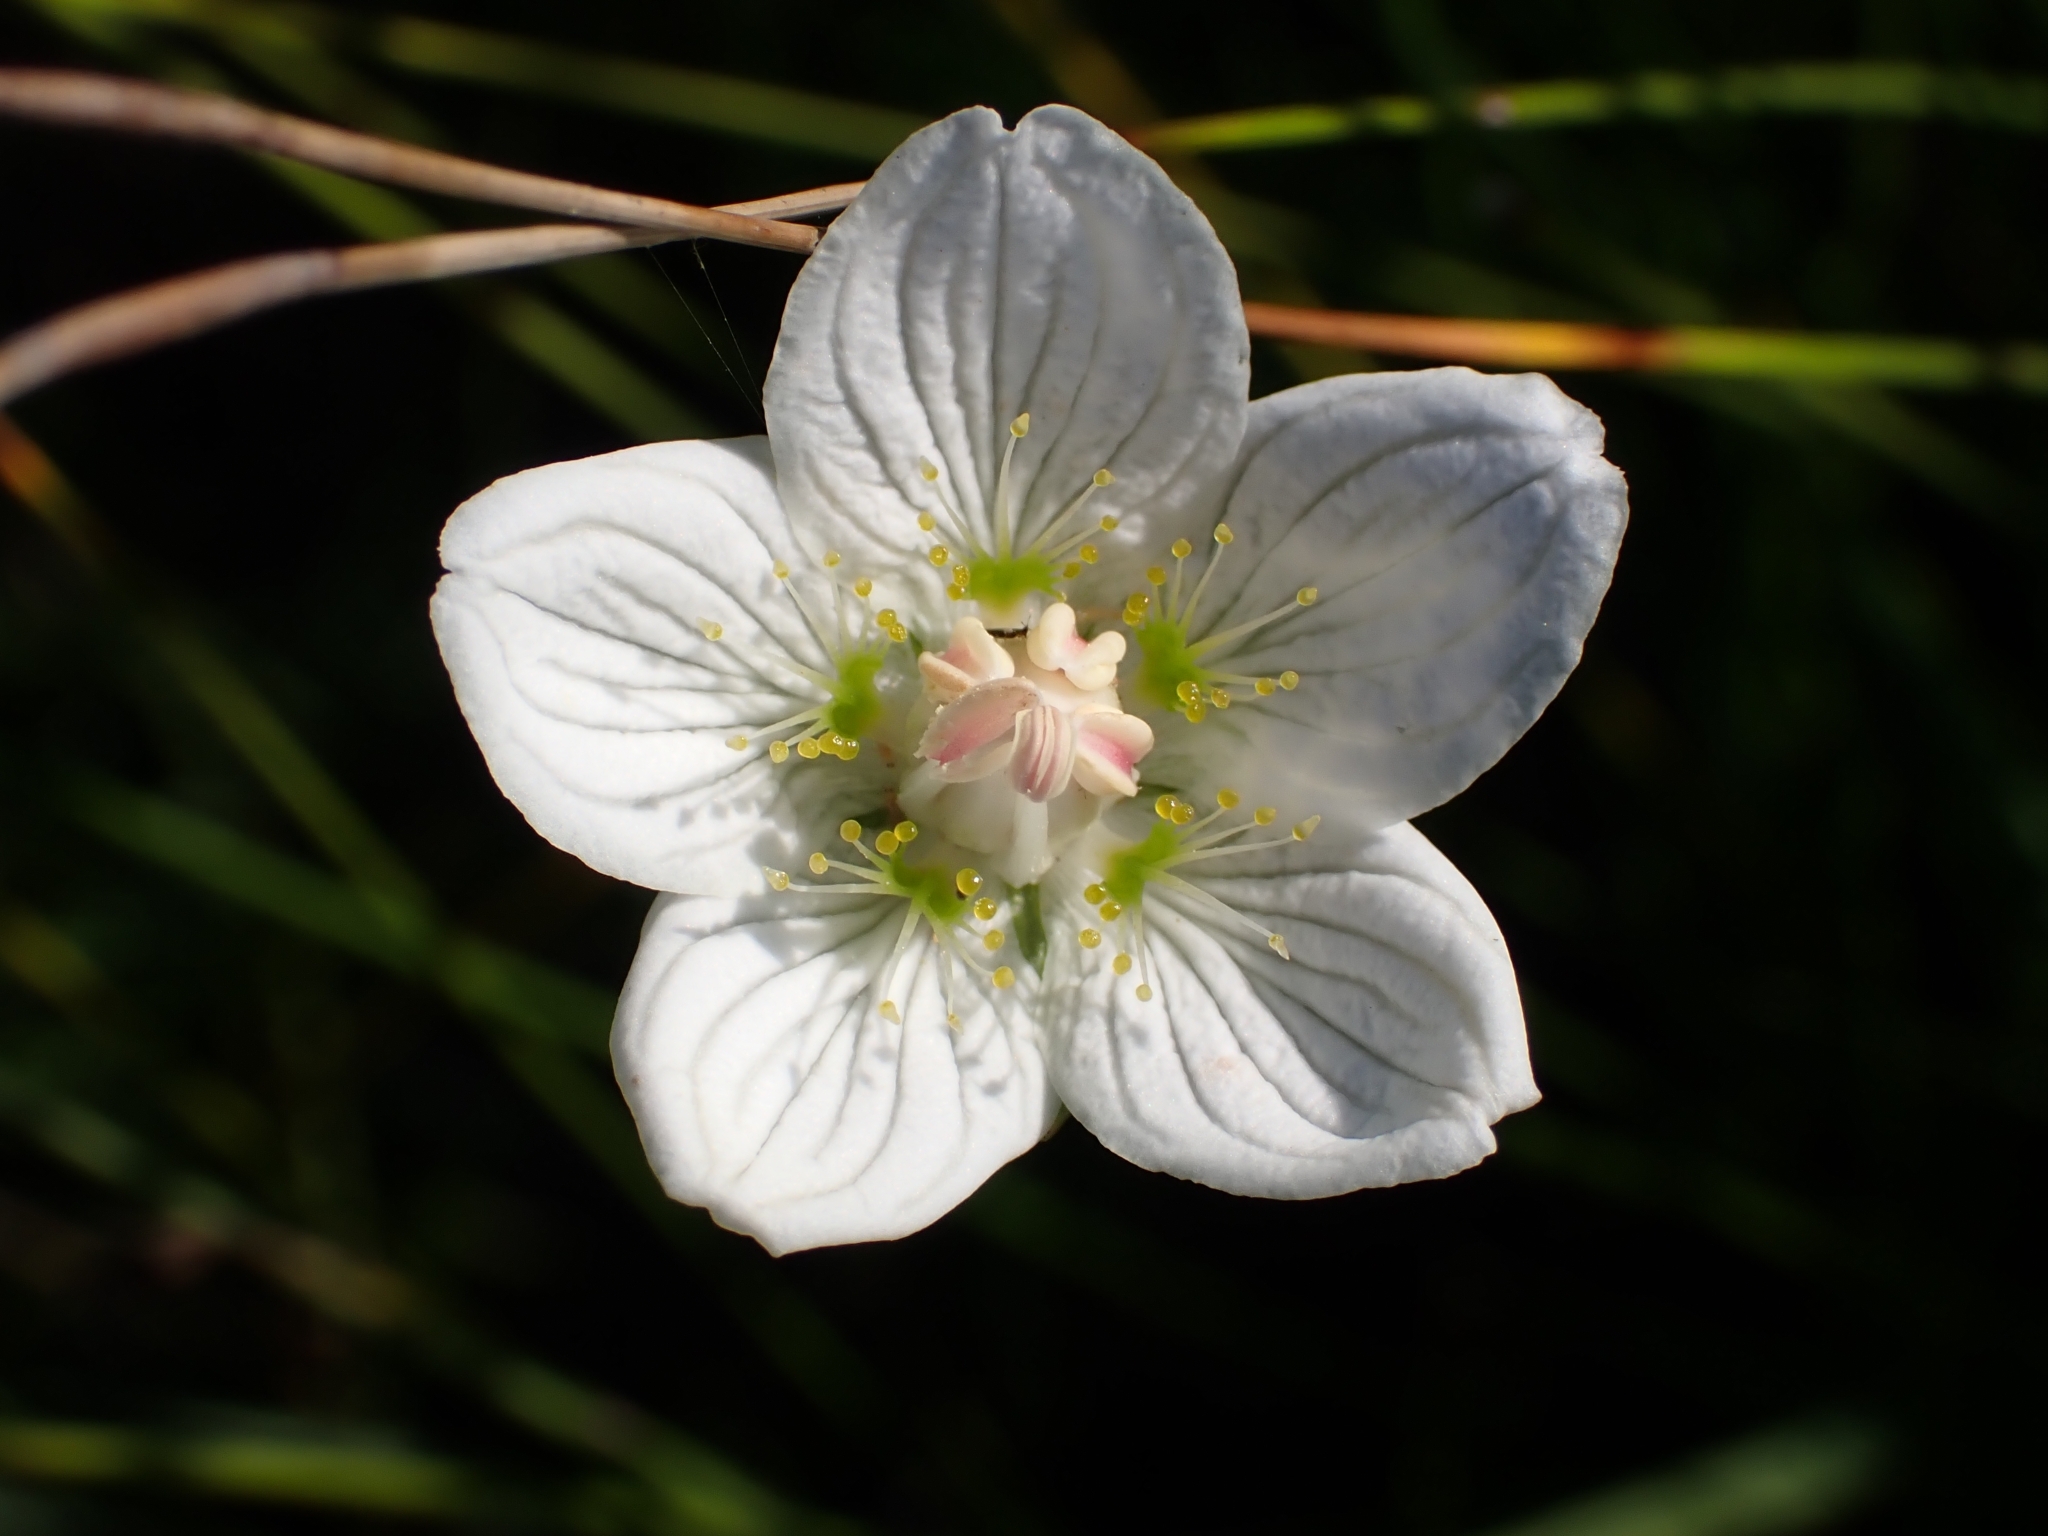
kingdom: Plantae
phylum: Tracheophyta
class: Magnoliopsida
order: Celastrales
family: Parnassiaceae
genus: Parnassia
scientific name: Parnassia palustris
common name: Grass-of-parnassus
